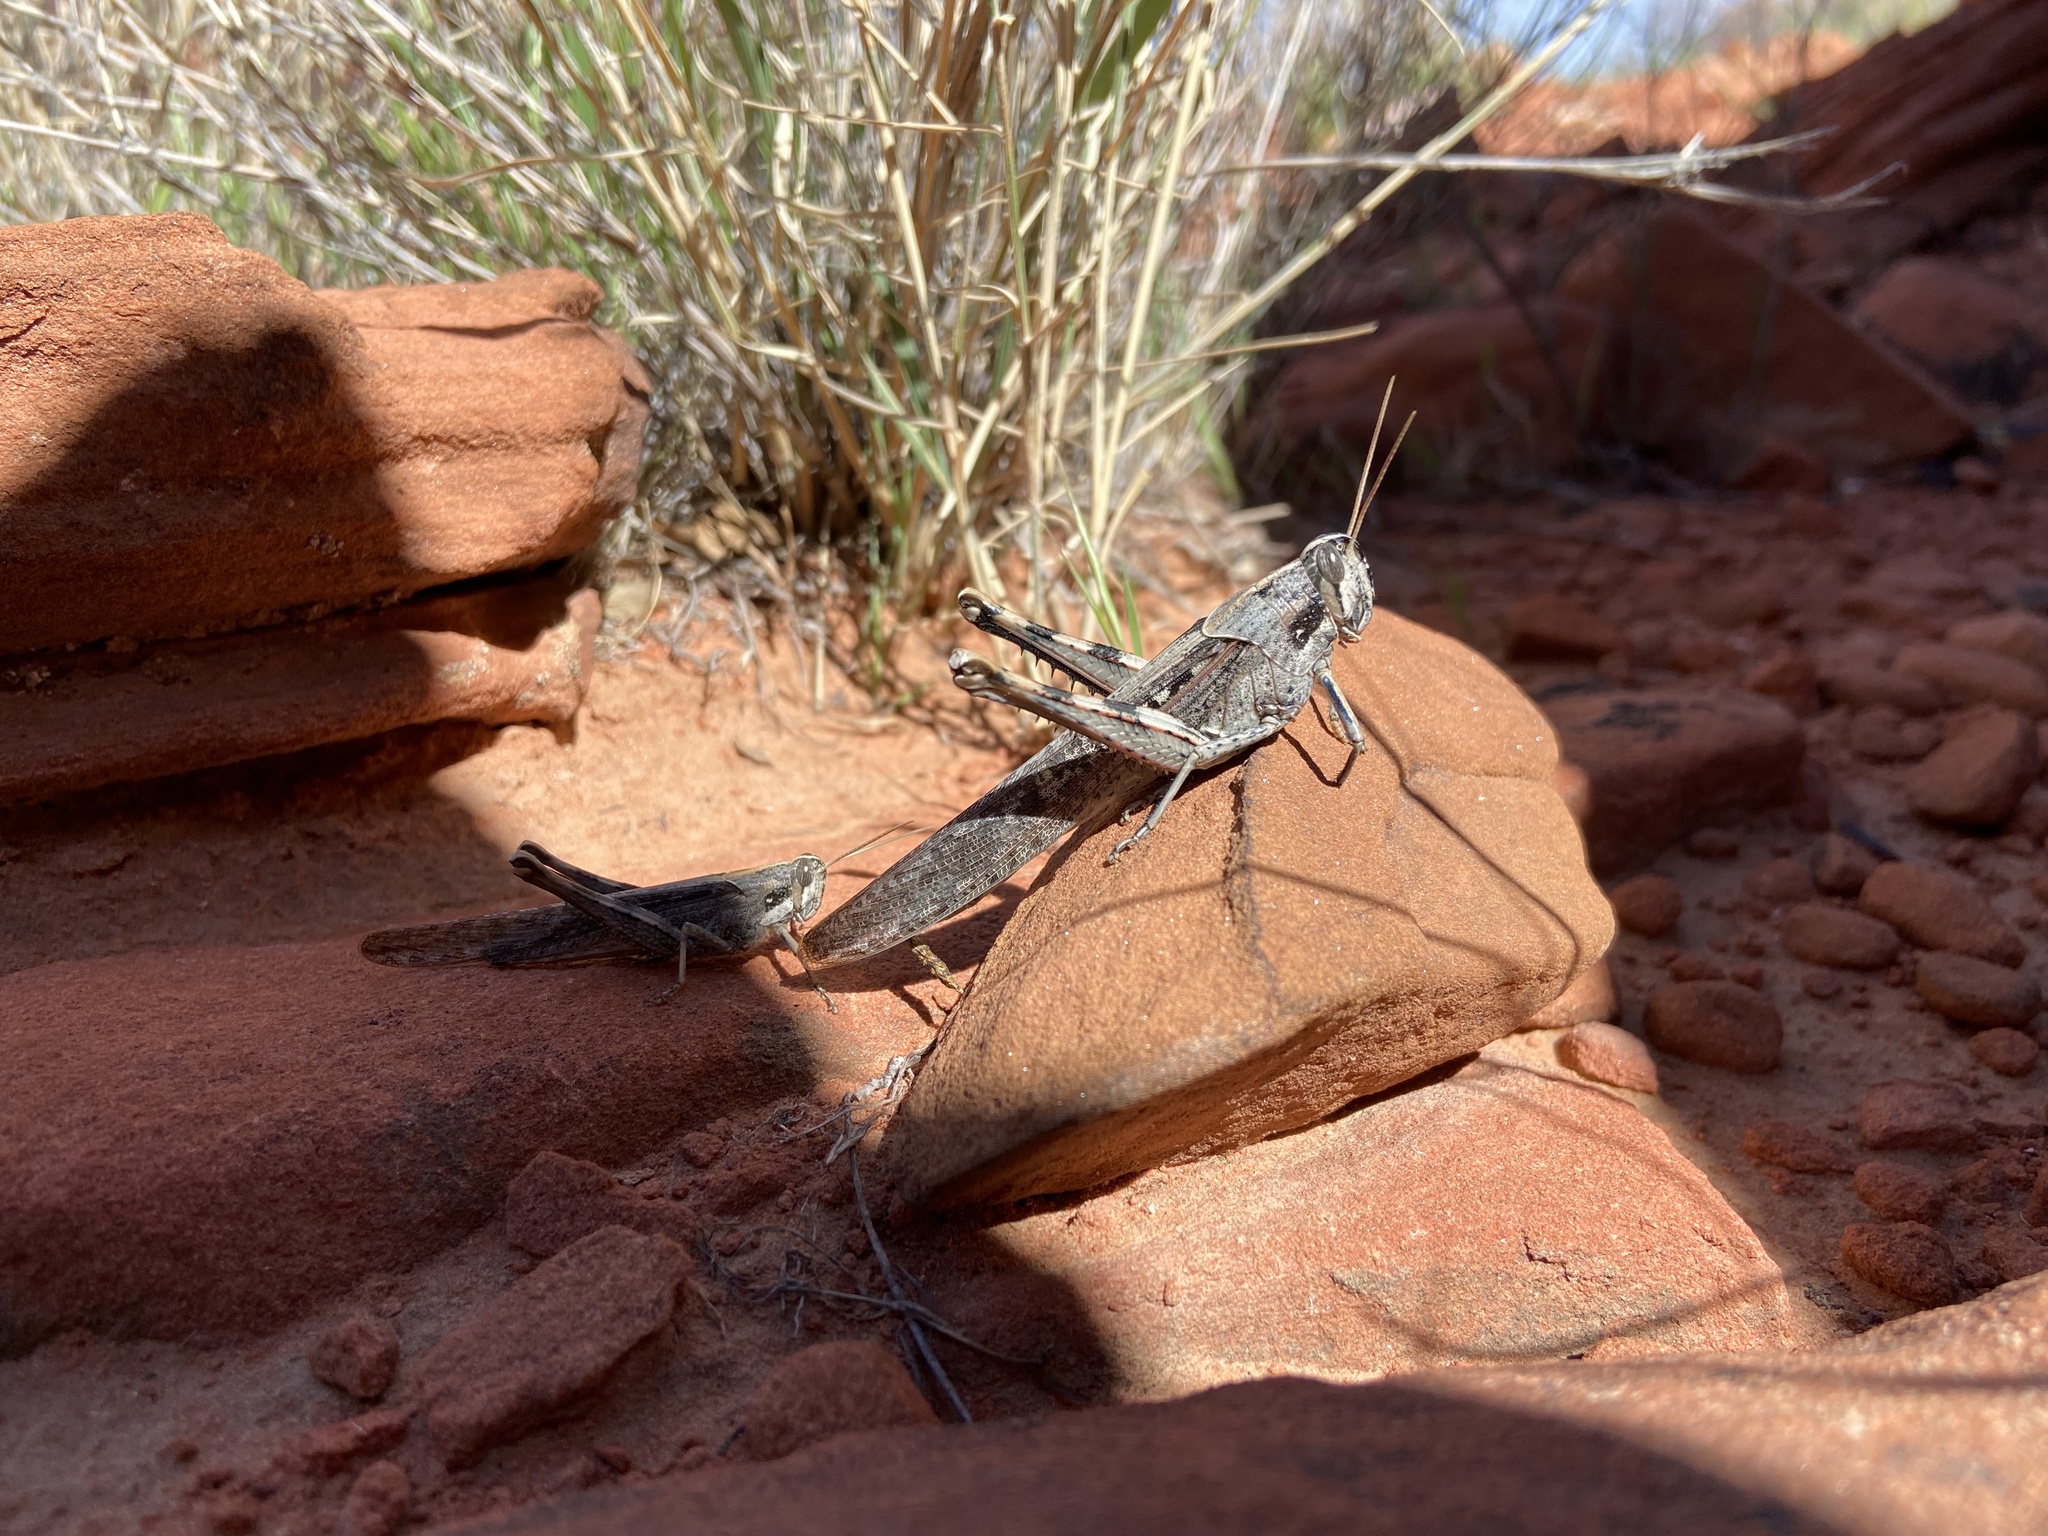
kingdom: Animalia
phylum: Arthropoda
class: Insecta
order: Orthoptera
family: Acrididae
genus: Schistocerca
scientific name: Schistocerca nitens
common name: Vagrant grasshopper
